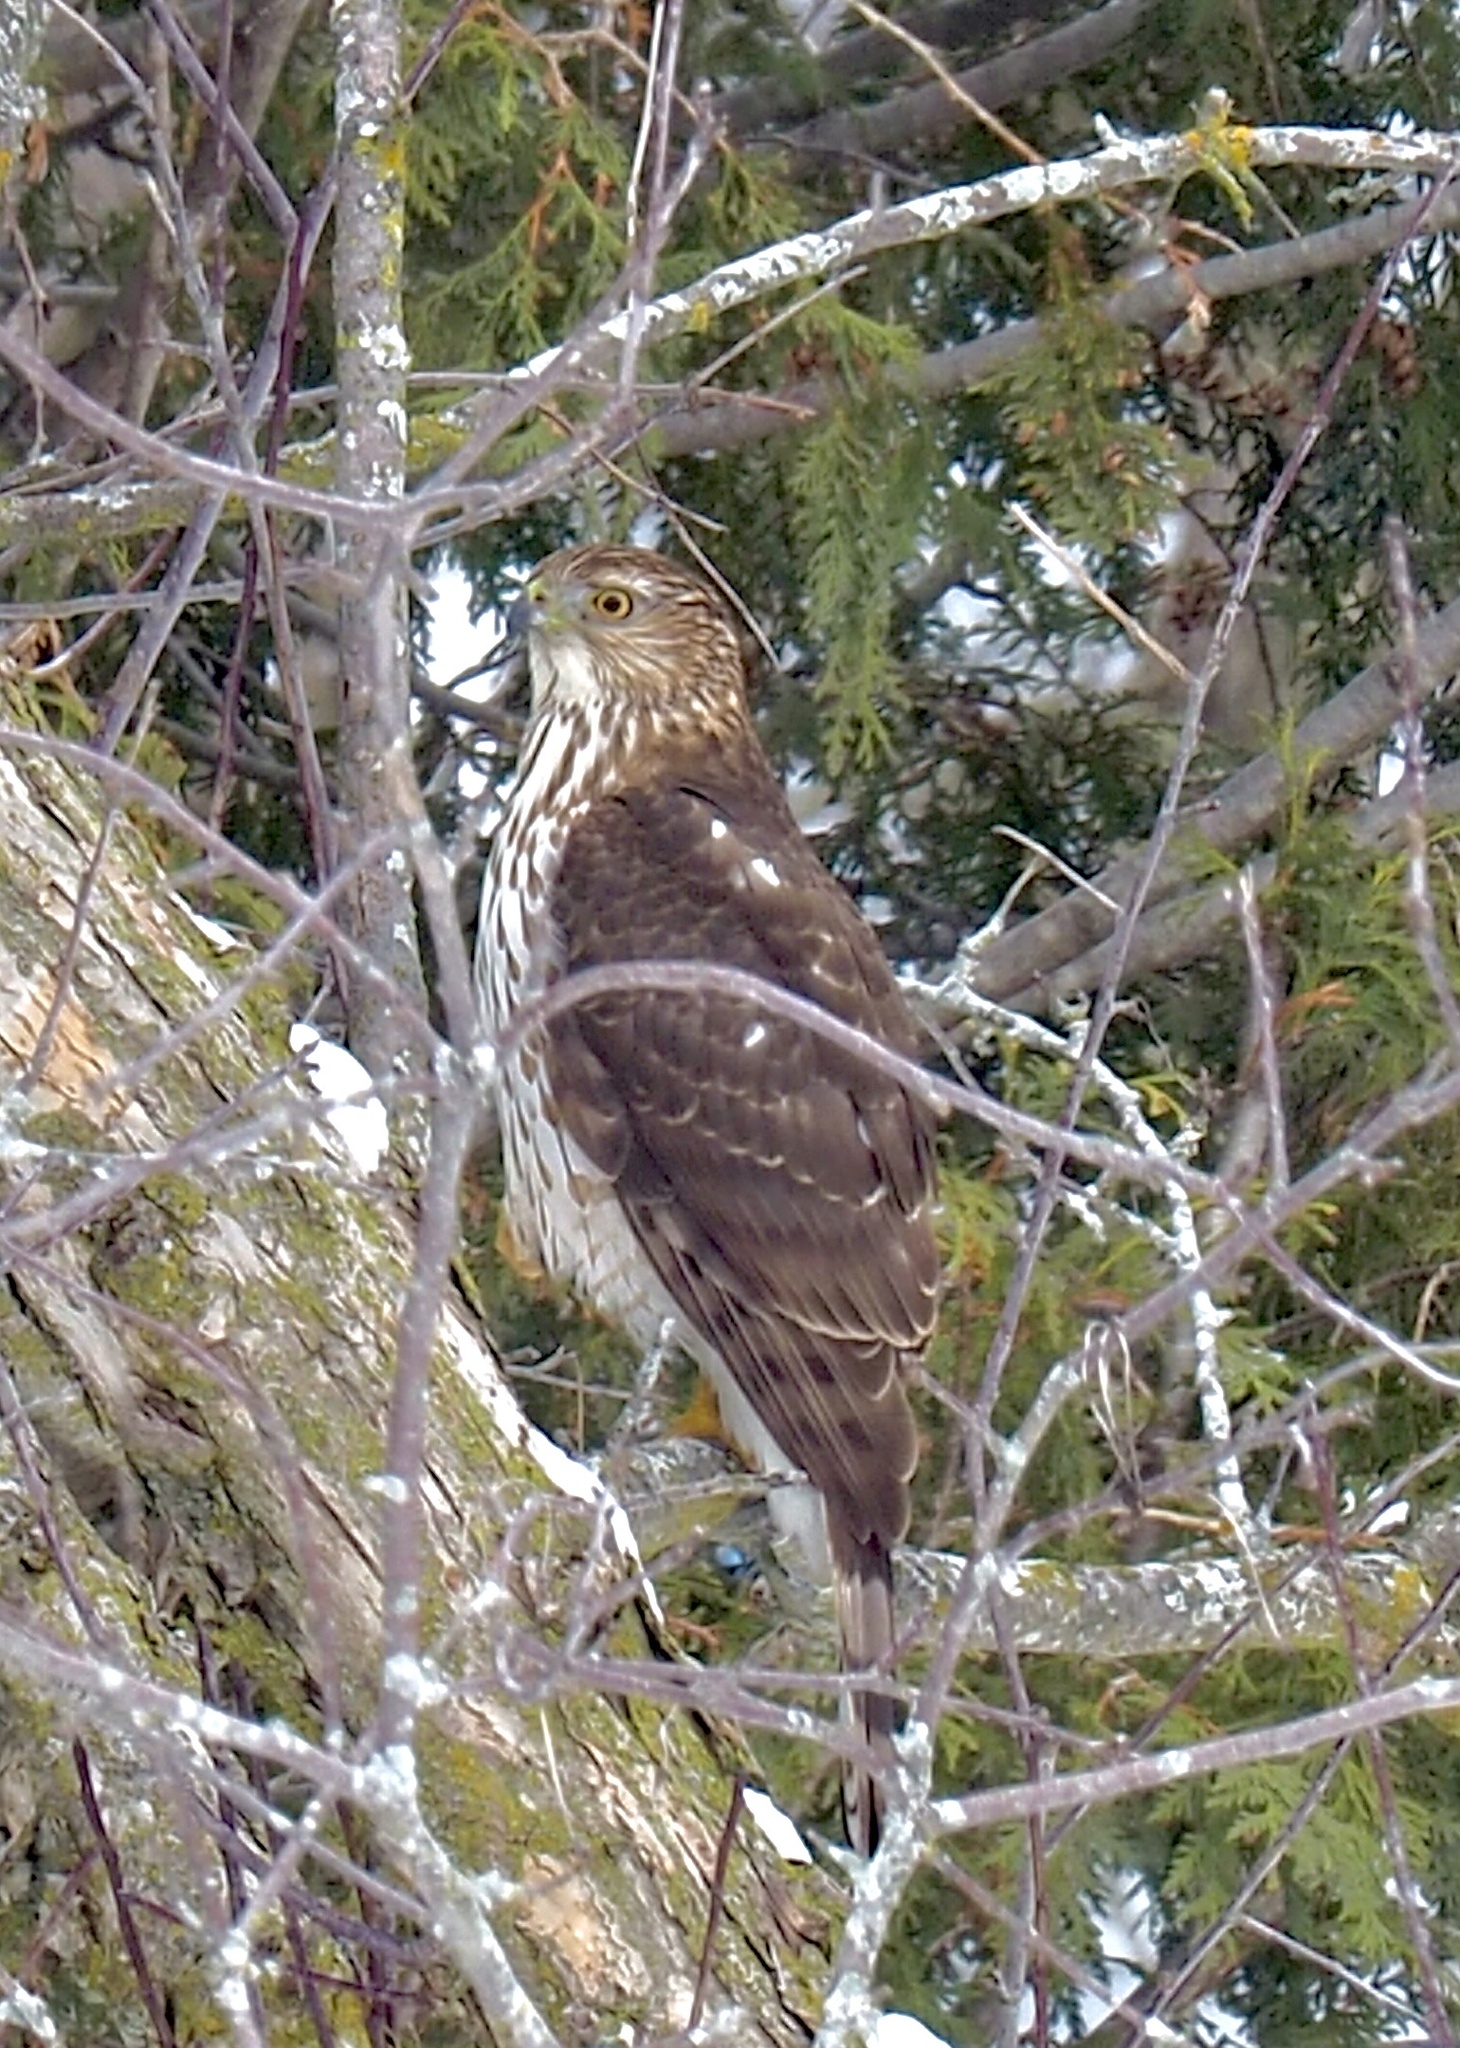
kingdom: Animalia
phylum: Chordata
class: Aves
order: Accipitriformes
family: Accipitridae
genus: Accipiter
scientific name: Accipiter cooperii
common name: Cooper's hawk
